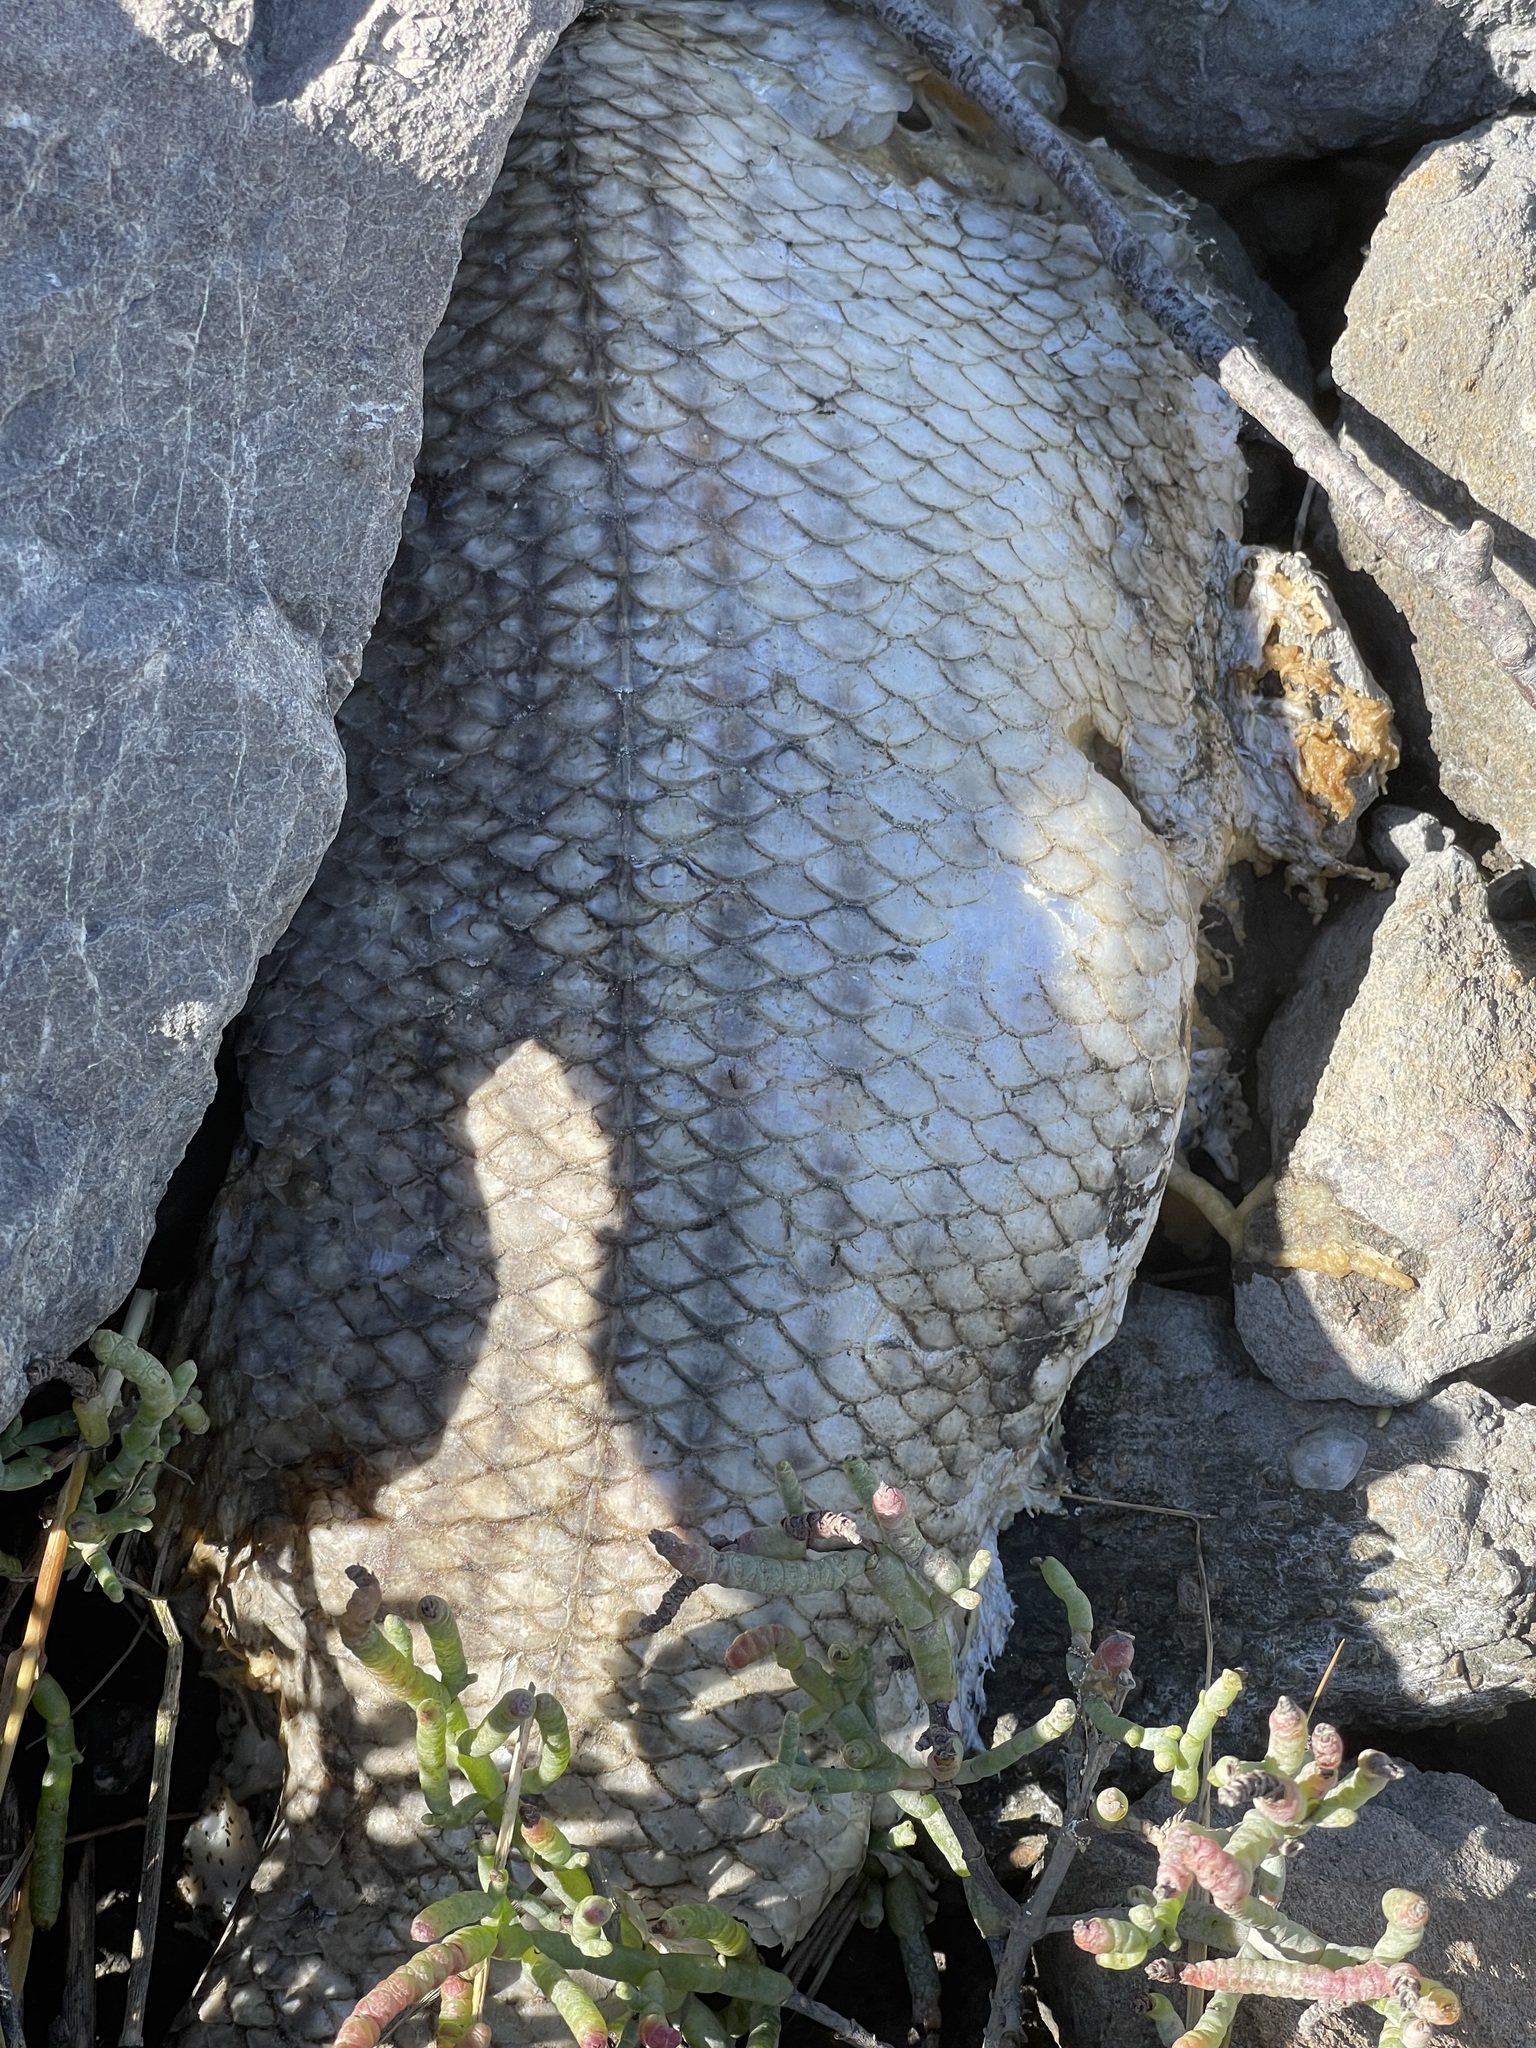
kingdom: Animalia
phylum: Chordata
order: Perciformes
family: Moronidae
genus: Morone
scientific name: Morone saxatilis
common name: Striped bass
